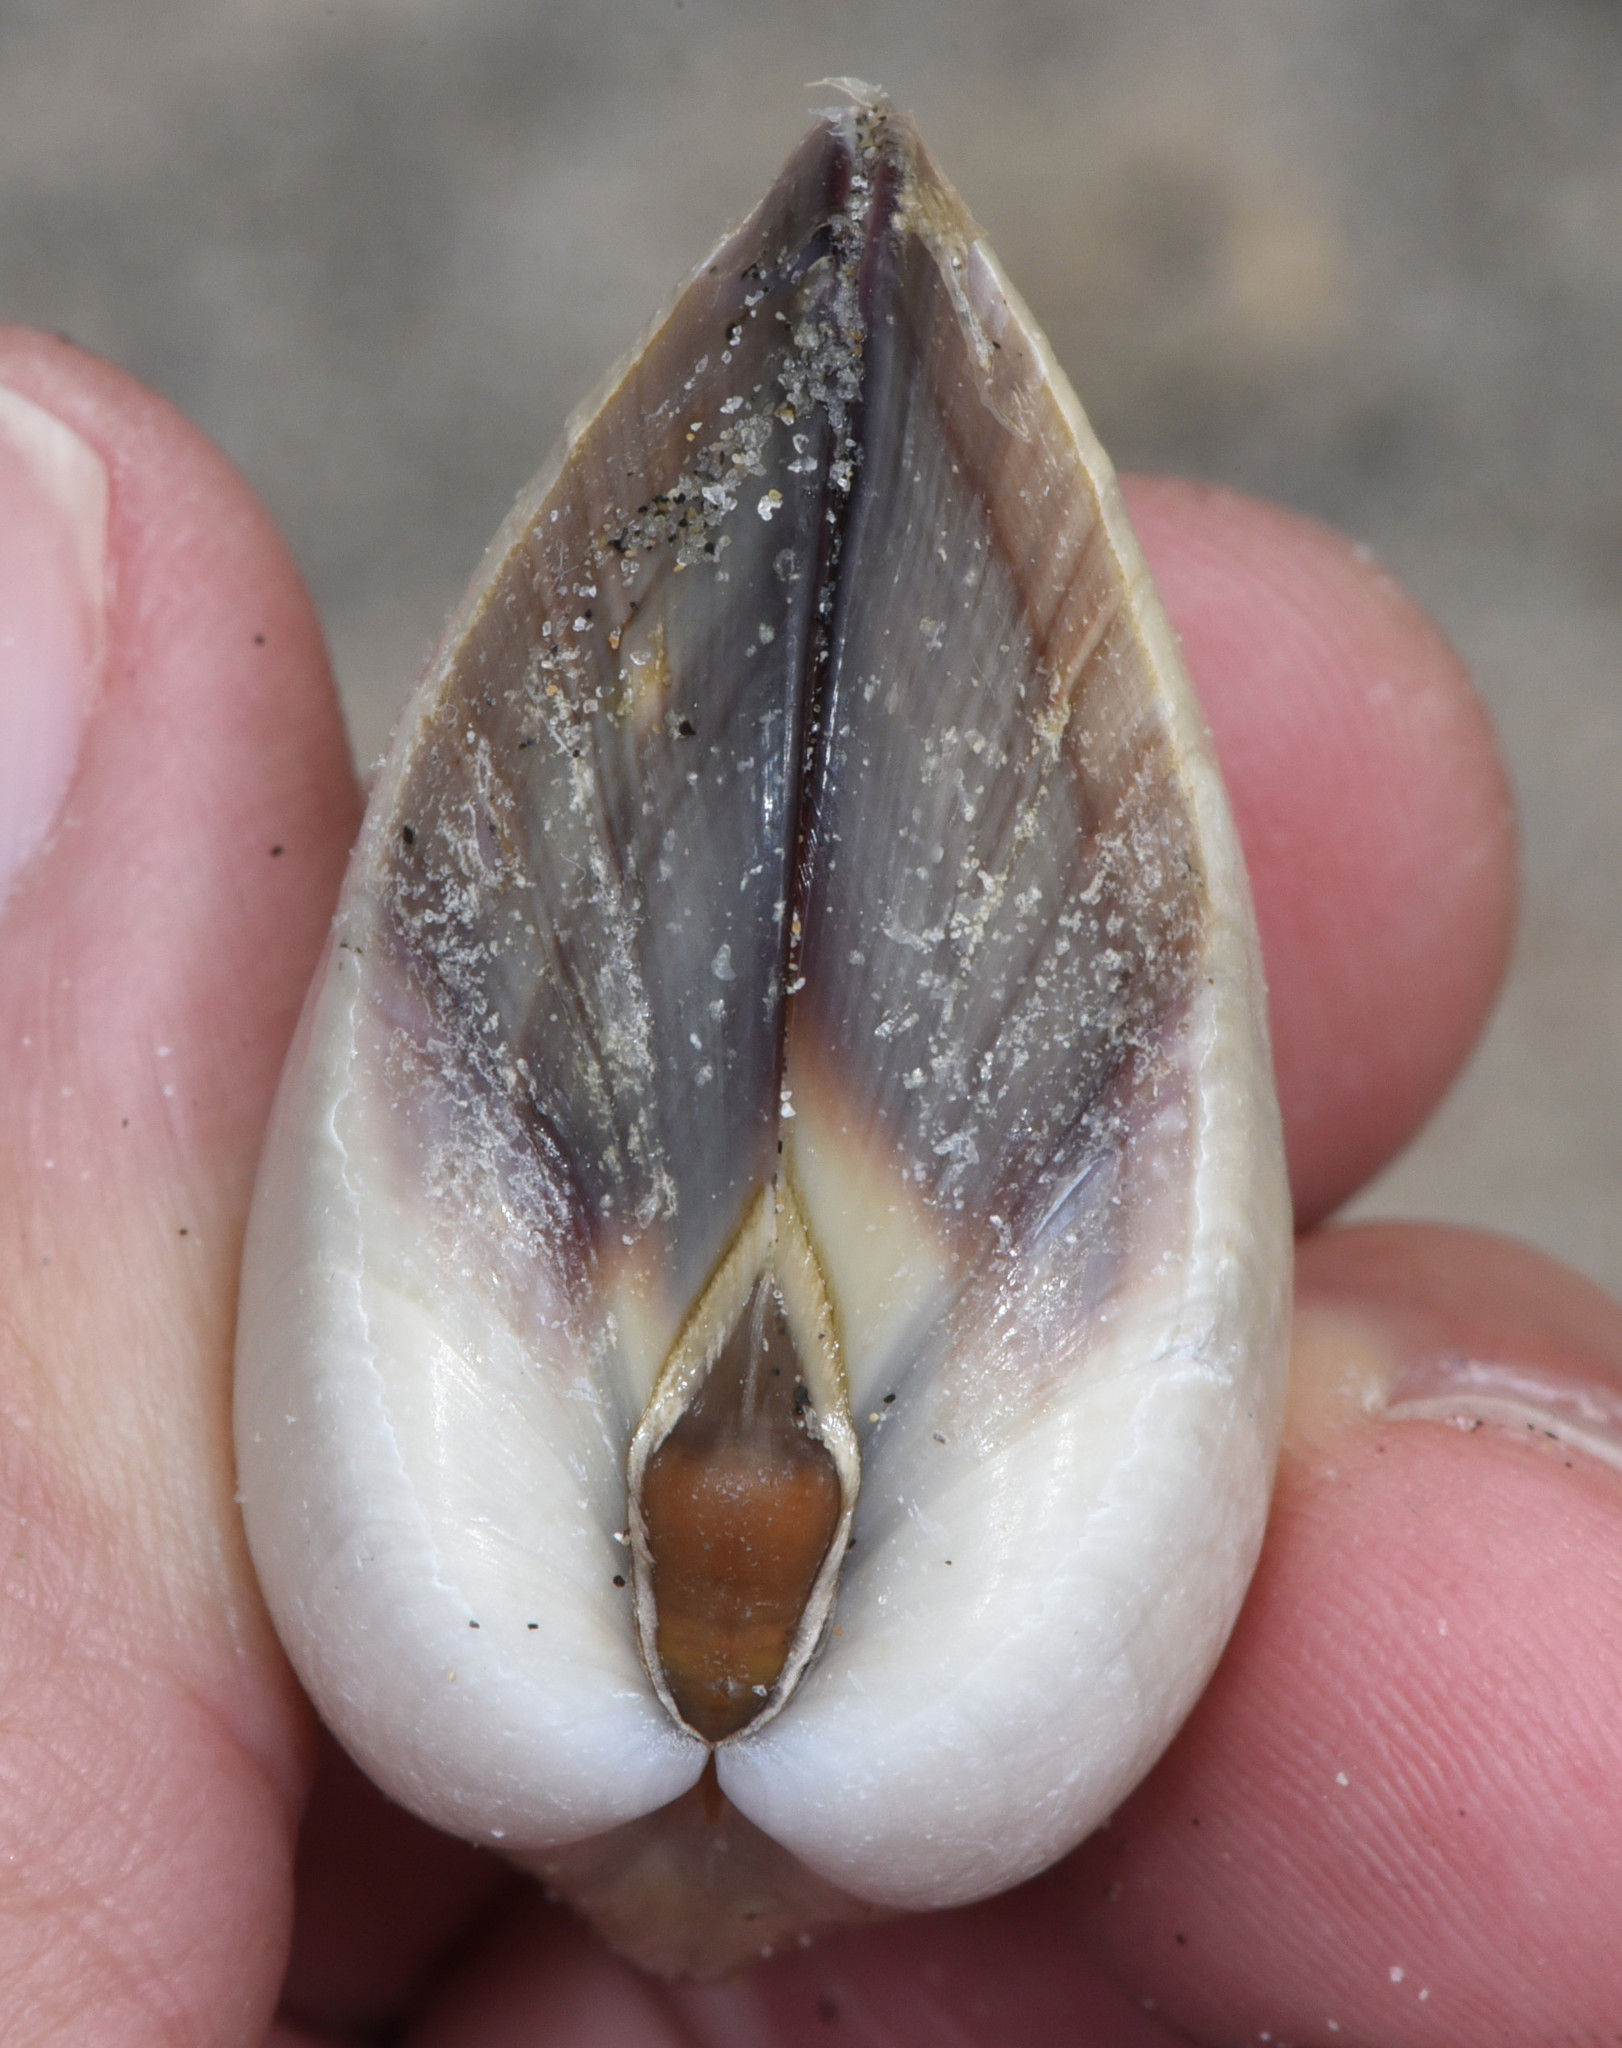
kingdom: Animalia
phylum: Mollusca
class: Bivalvia
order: Venerida
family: Veneridae
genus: Tivela
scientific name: Tivela stultorum
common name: Pismo clam
